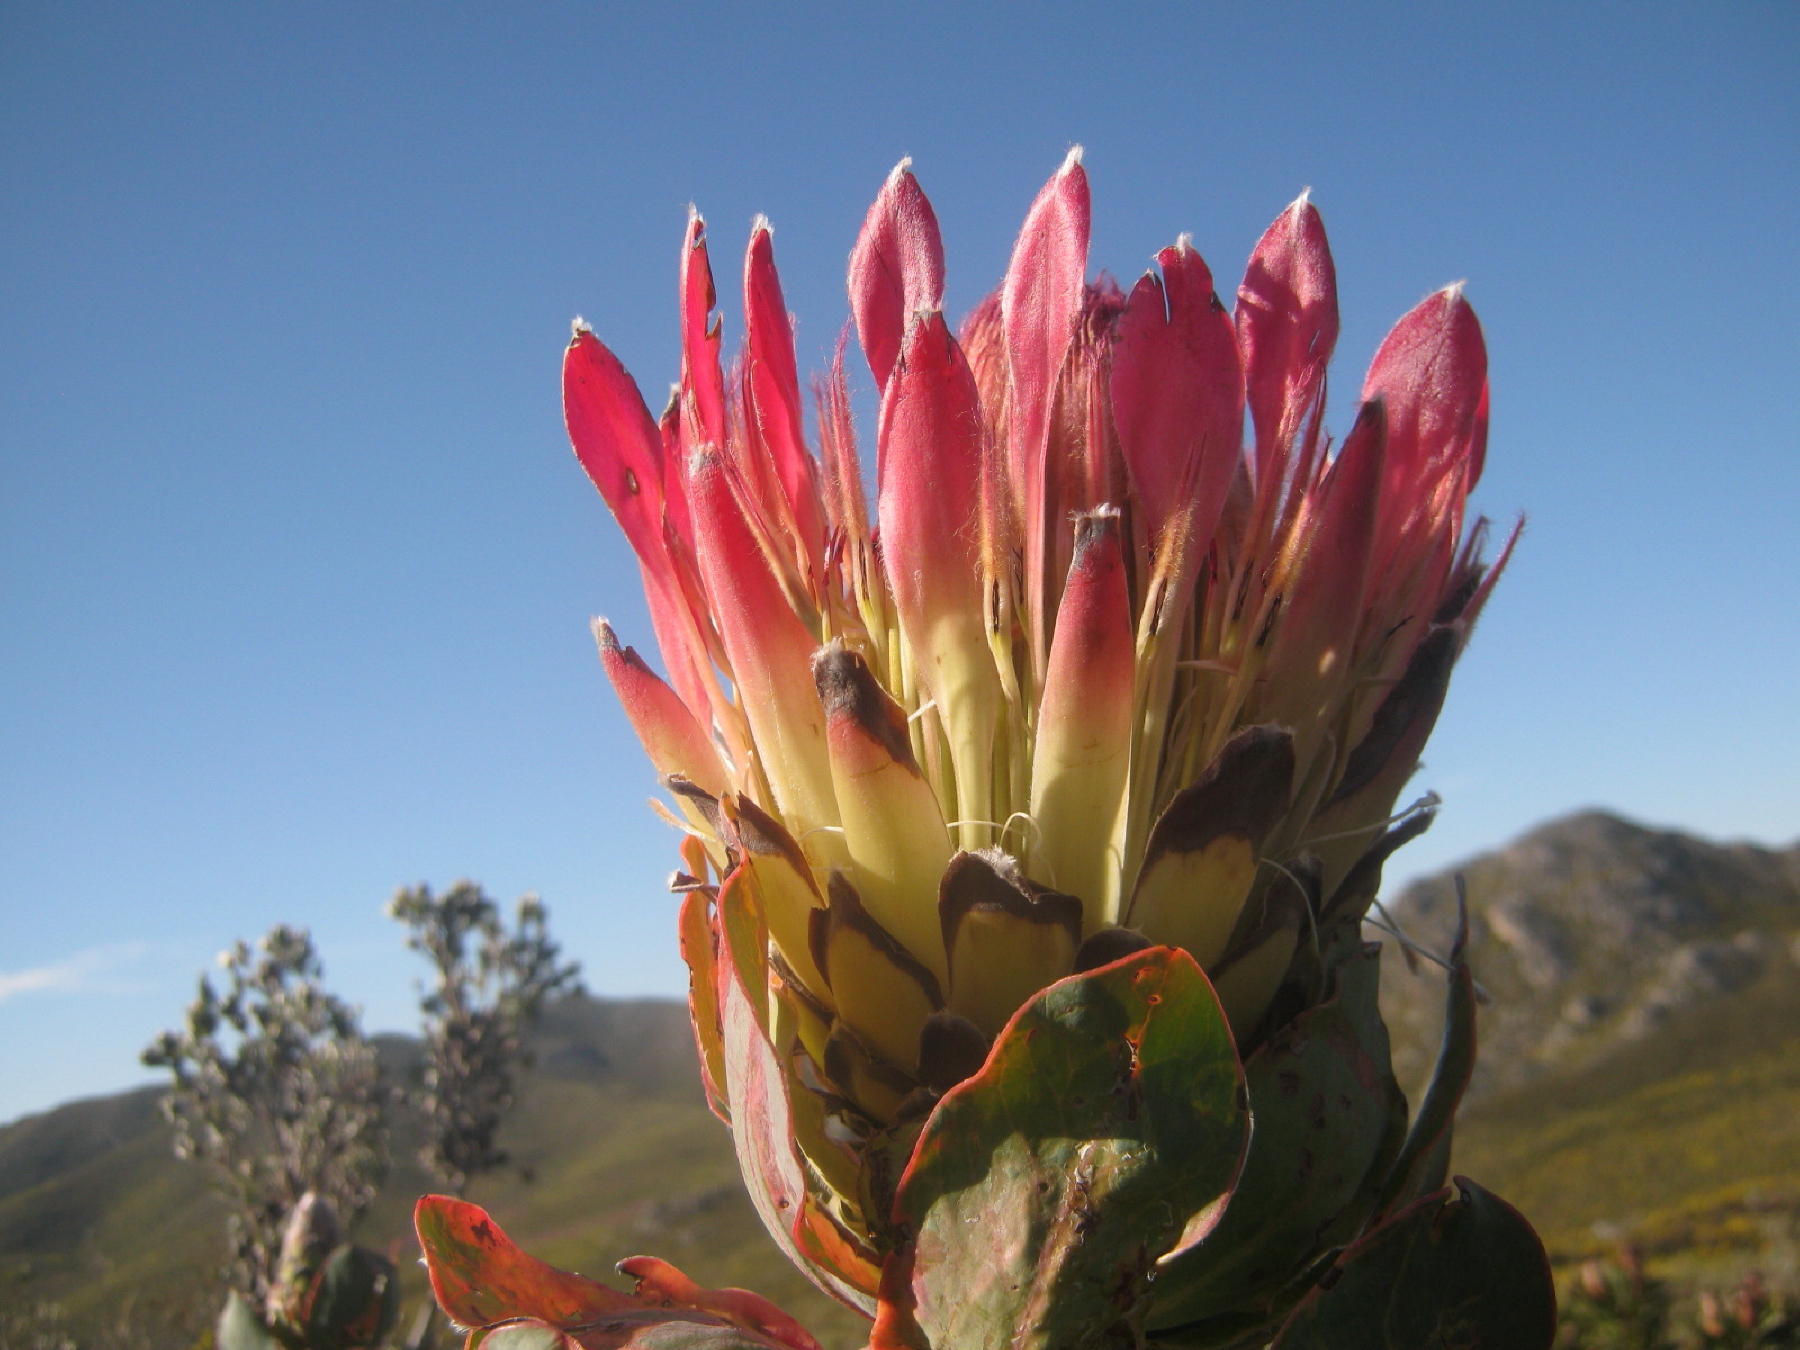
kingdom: Plantae
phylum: Tracheophyta
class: Magnoliopsida
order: Proteales
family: Proteaceae
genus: Protea
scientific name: Protea eximia
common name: Broad-leaved sugarbush
